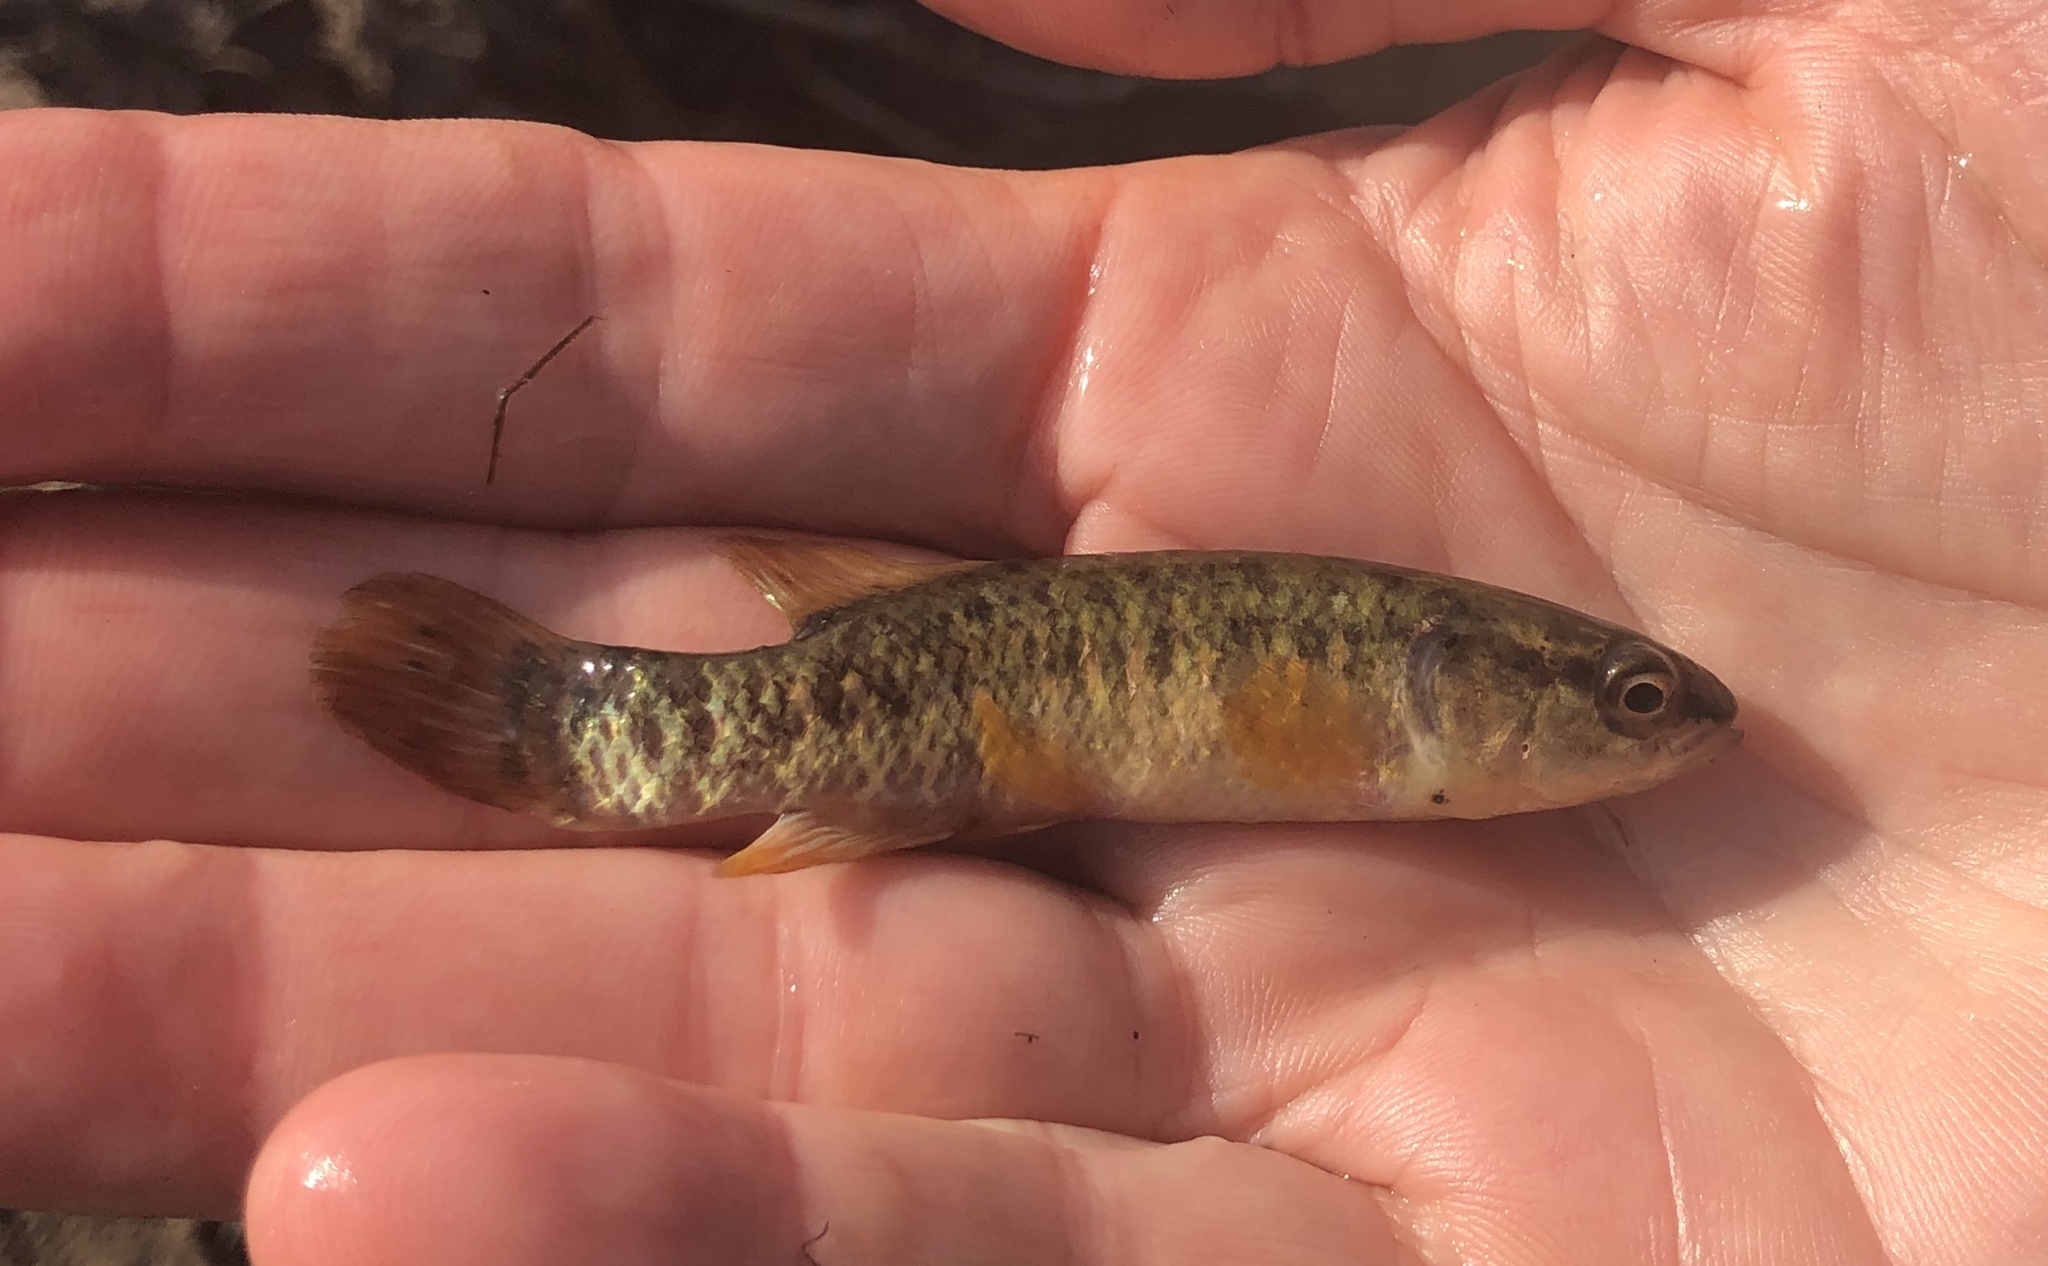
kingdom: Animalia
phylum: Chordata
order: Esociformes
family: Umbridae
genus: Umbra
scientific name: Umbra limi
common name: Central mudminnow
